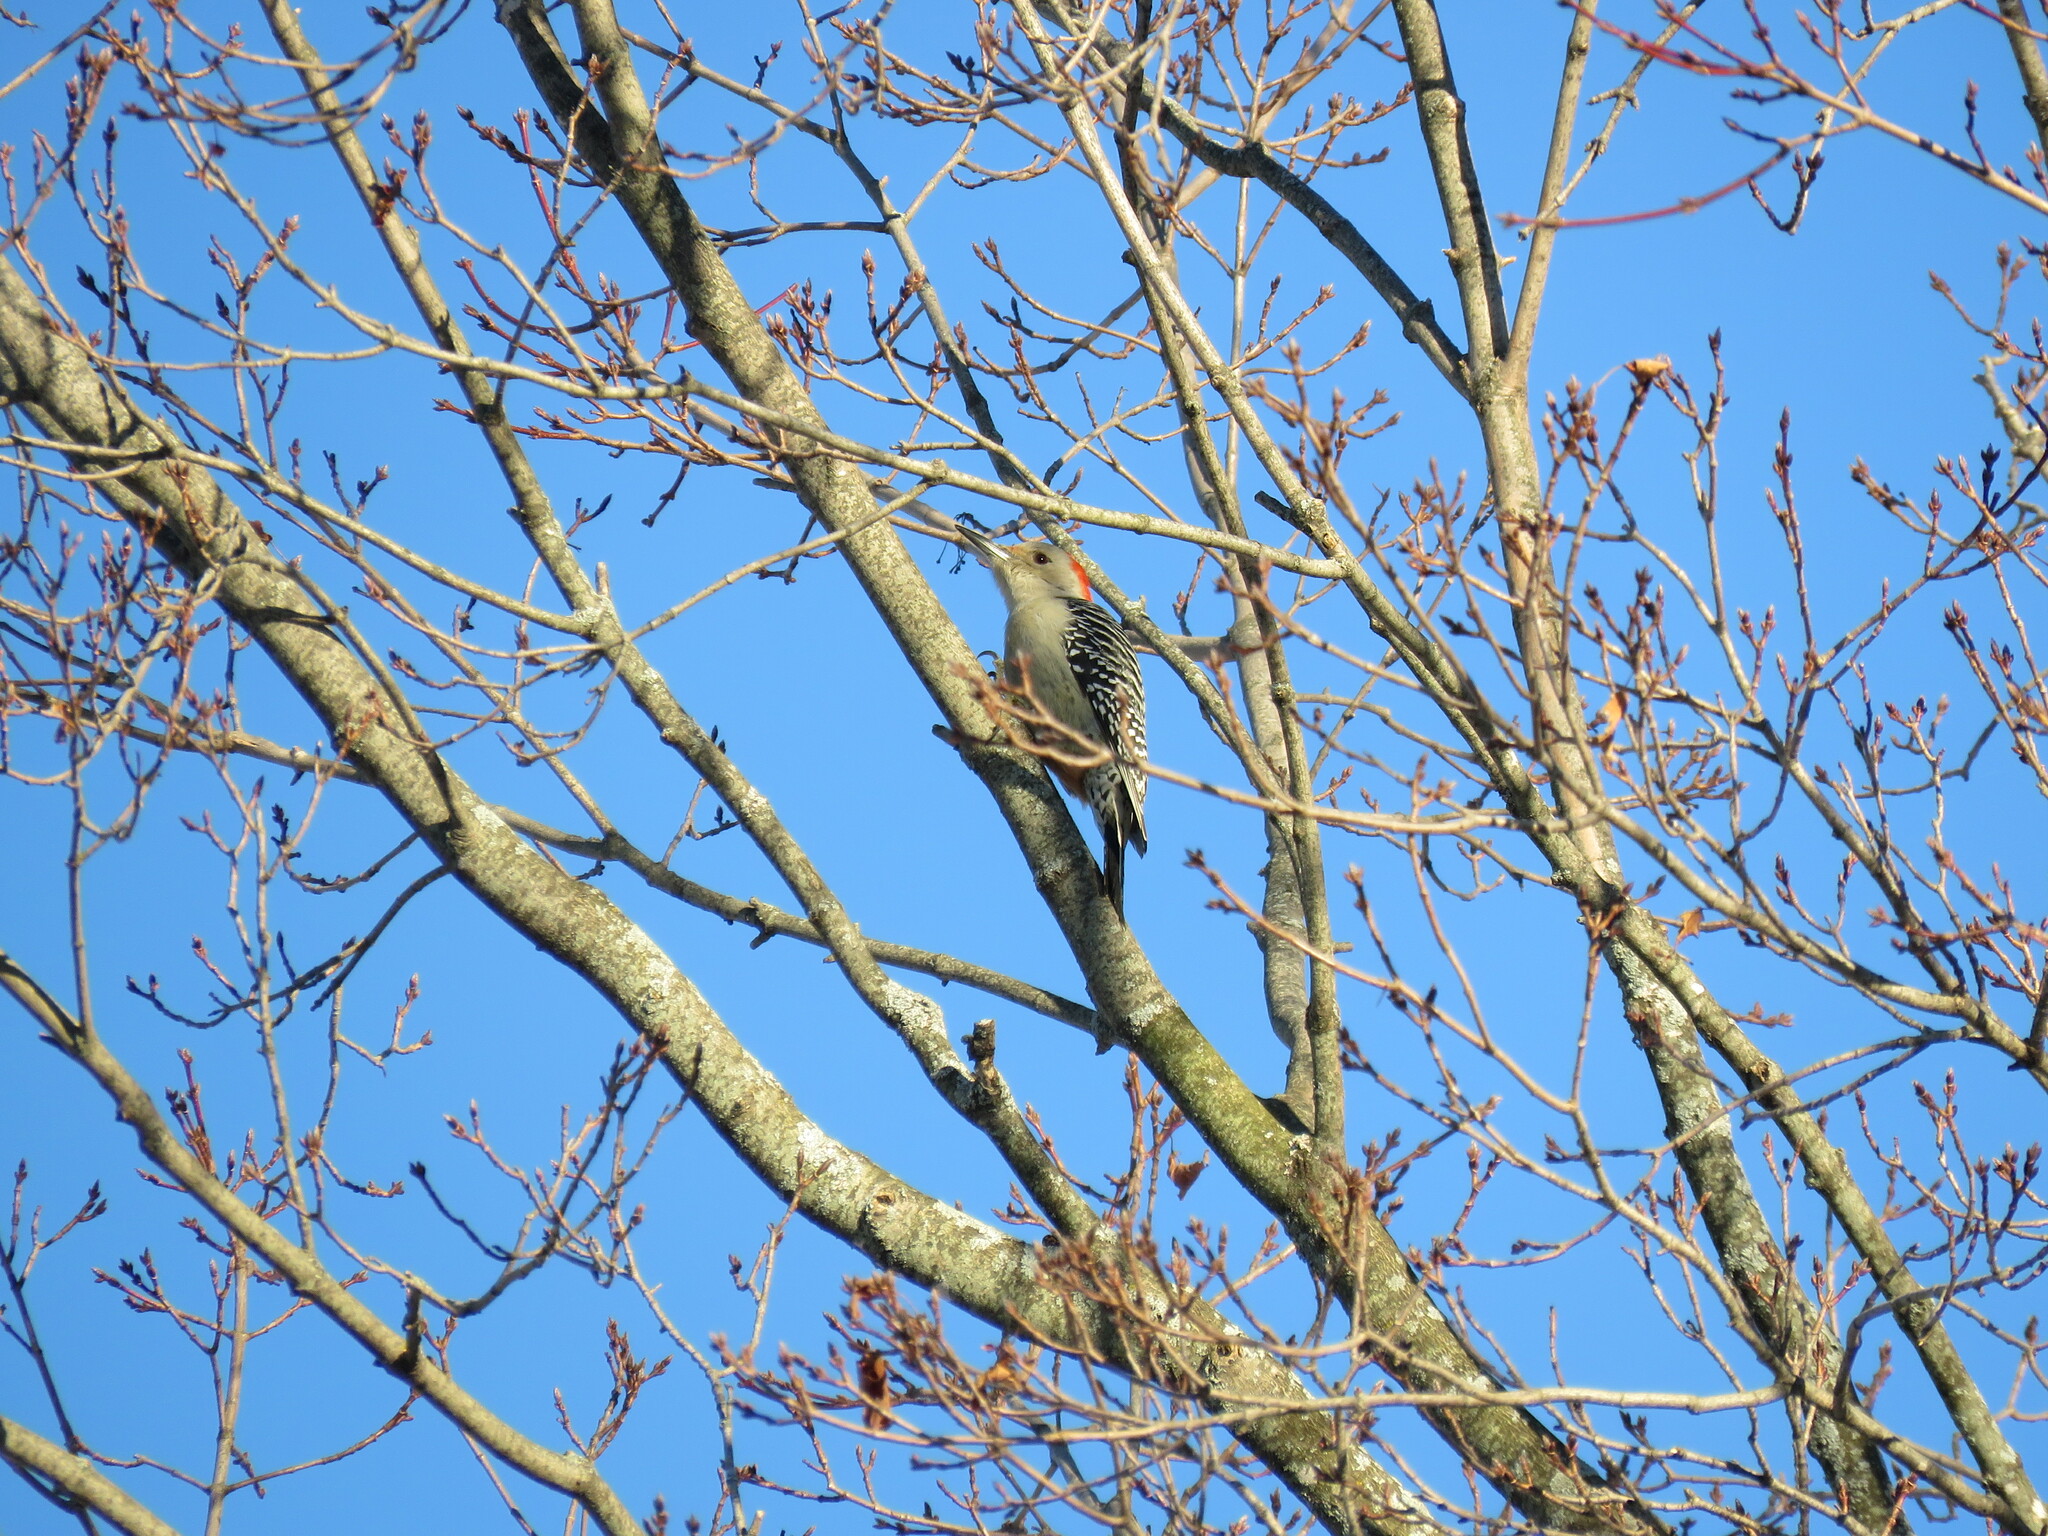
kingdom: Animalia
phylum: Chordata
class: Aves
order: Piciformes
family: Picidae
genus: Melanerpes
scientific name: Melanerpes carolinus
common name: Red-bellied woodpecker
